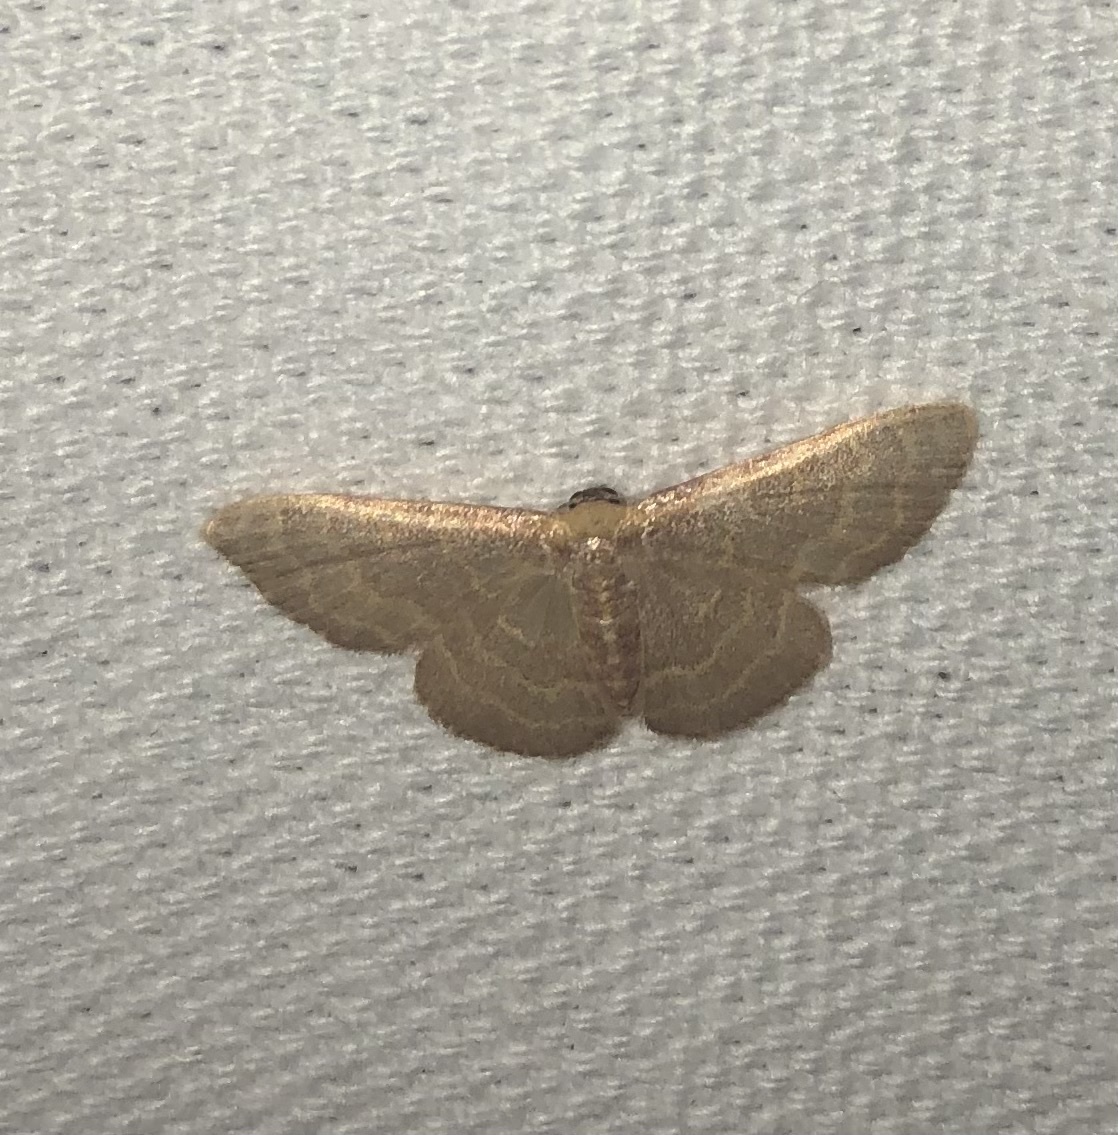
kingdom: Animalia
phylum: Arthropoda
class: Insecta
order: Lepidoptera
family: Geometridae
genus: Leptostales
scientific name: Leptostales pannaria
